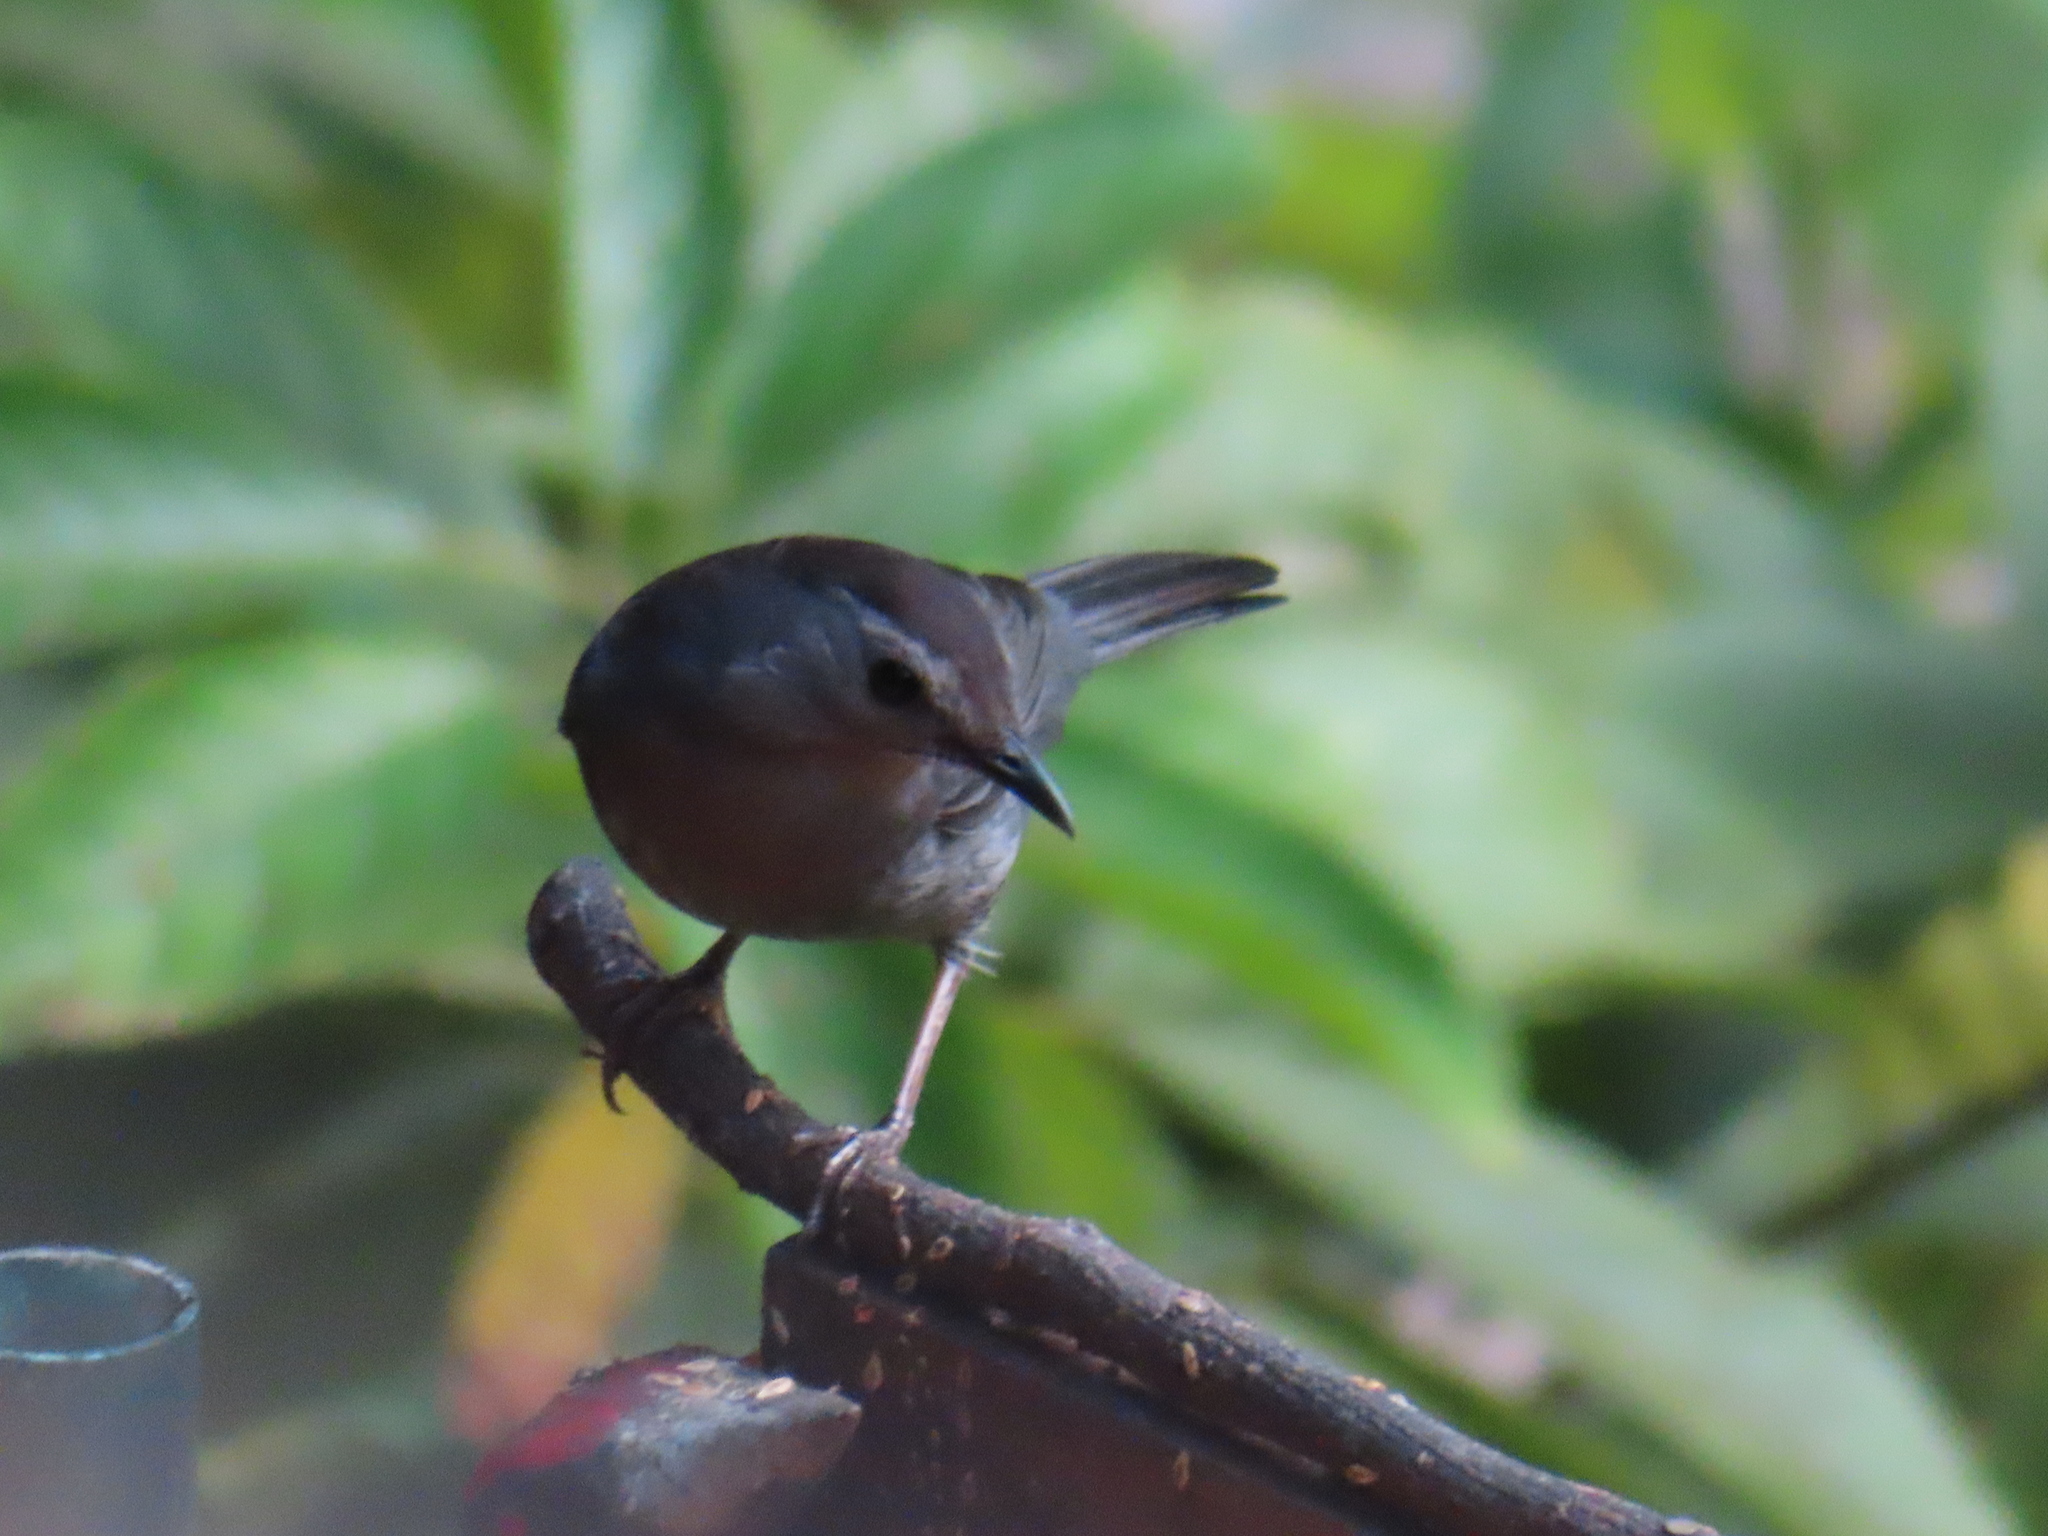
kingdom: Animalia
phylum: Chordata
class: Aves
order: Passeriformes
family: Mimidae
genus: Dumetella
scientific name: Dumetella carolinensis
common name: Gray catbird
